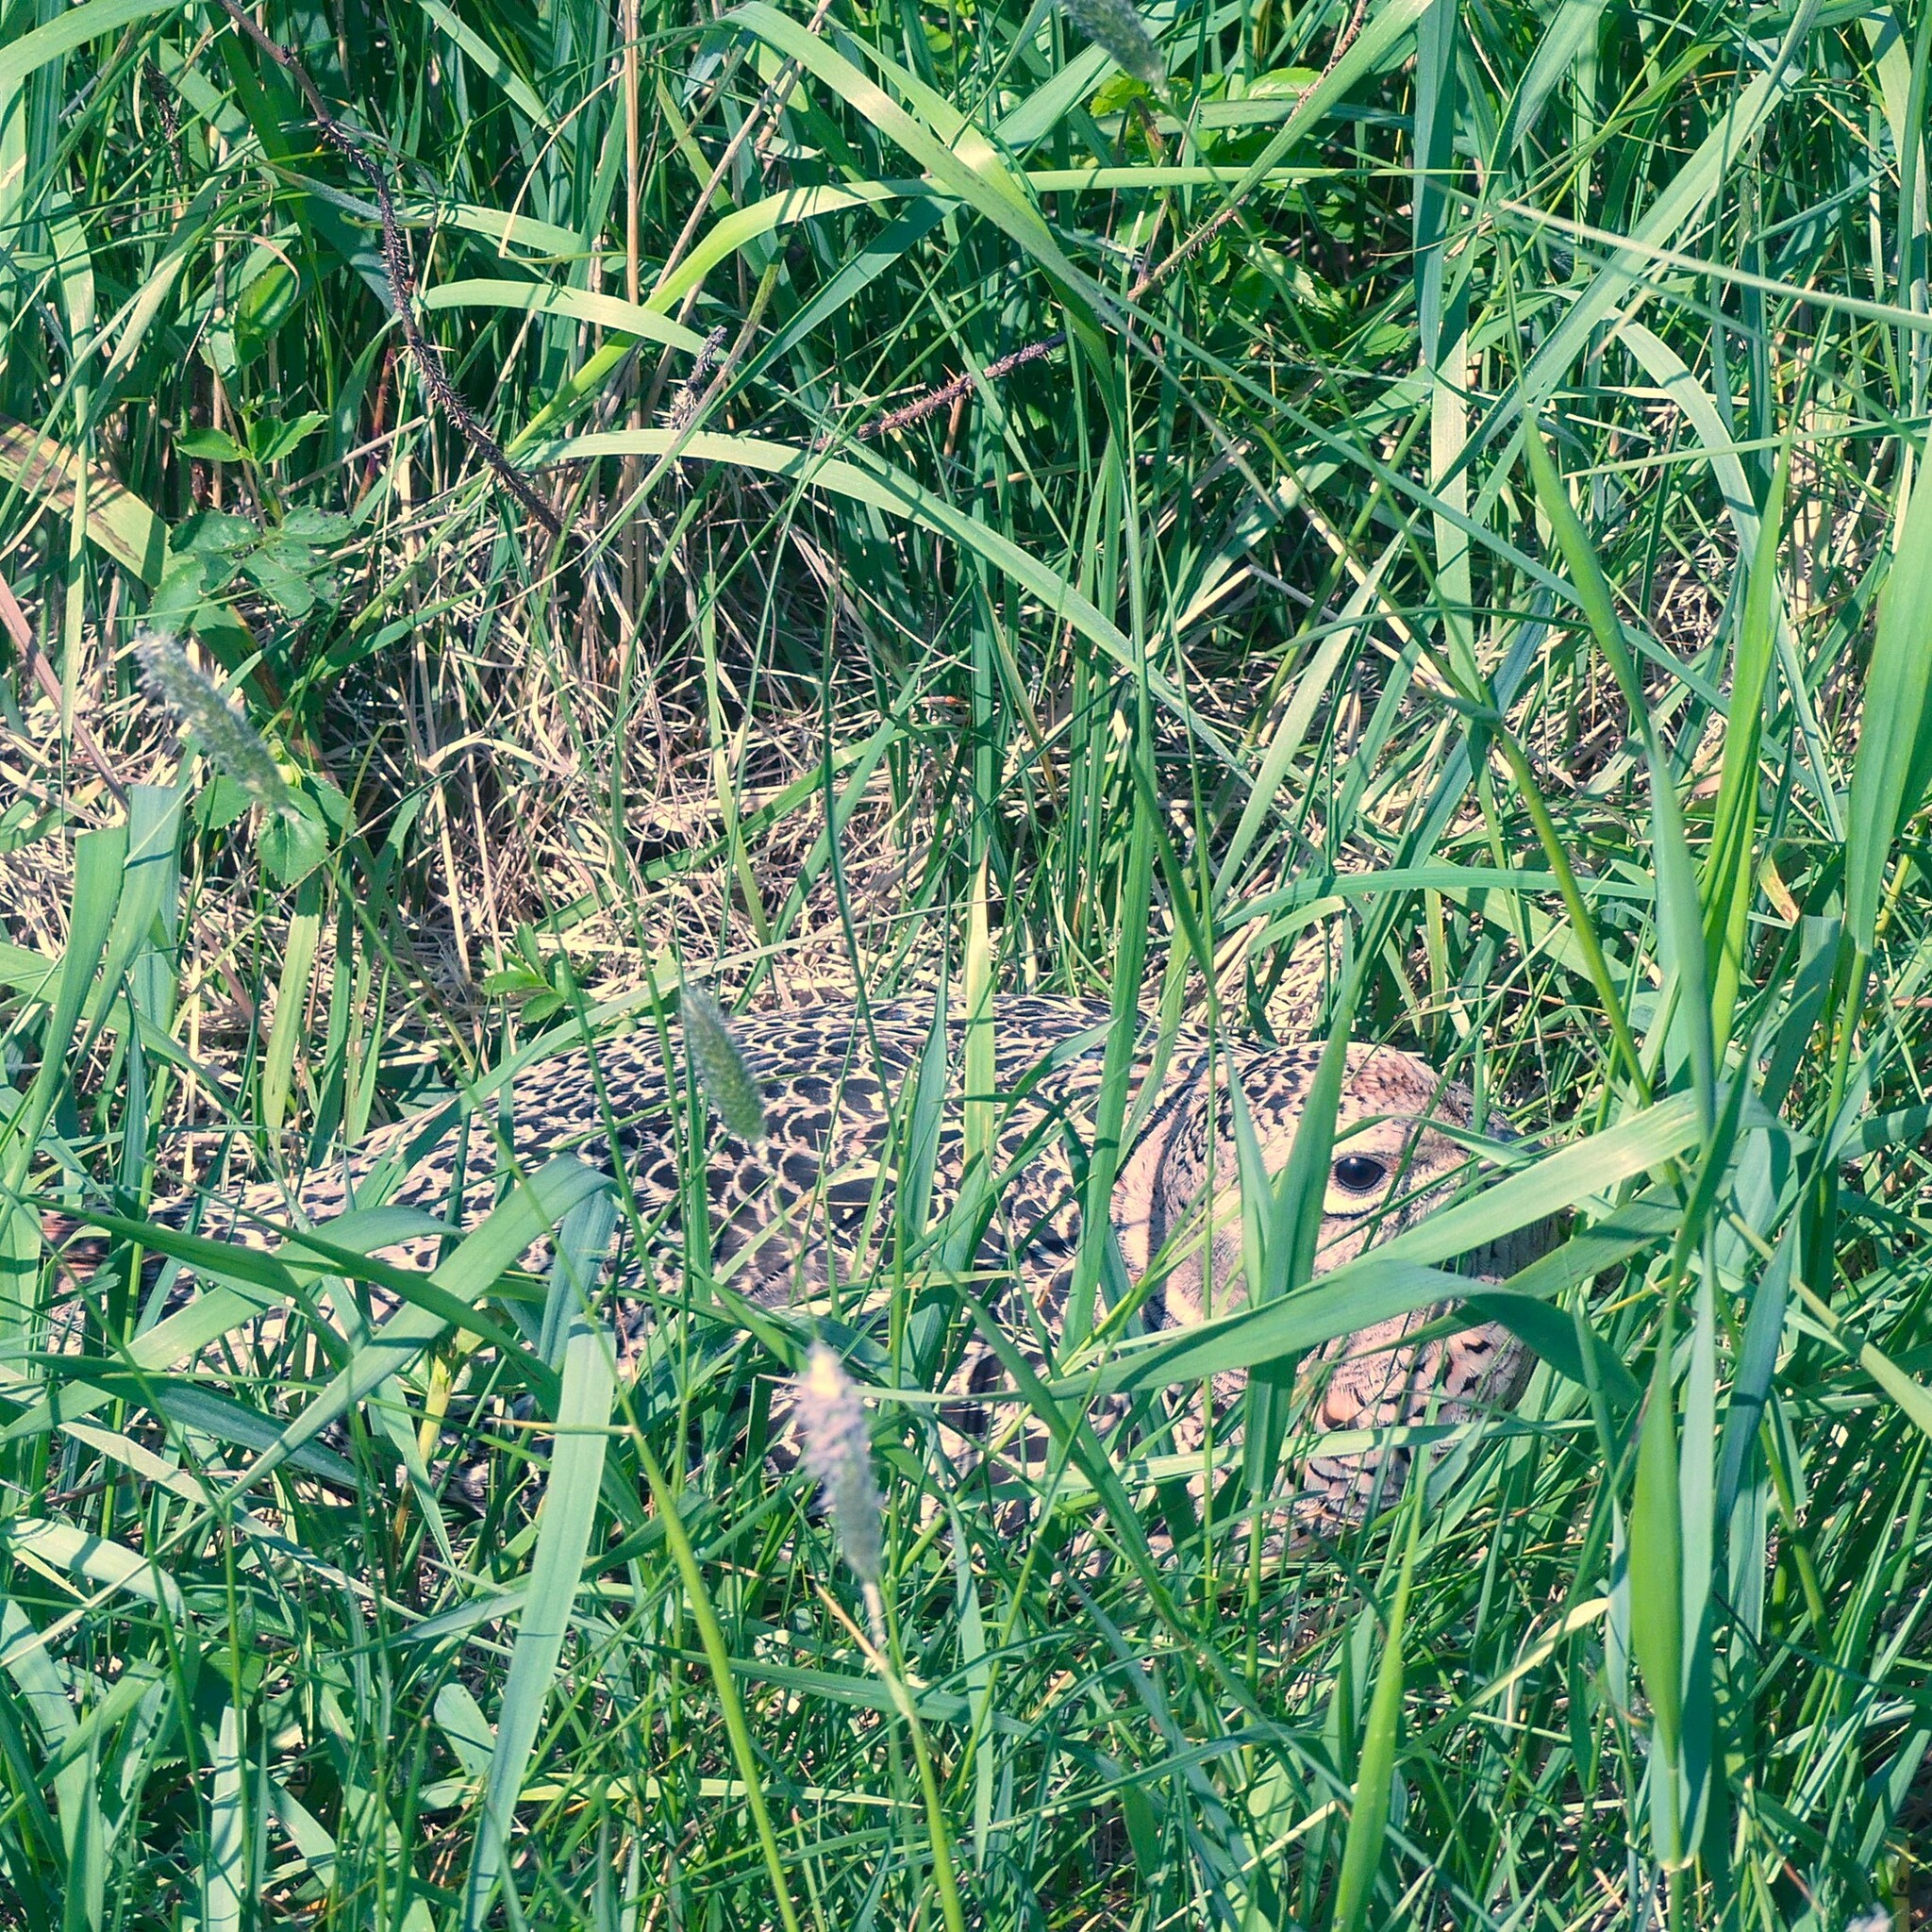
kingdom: Animalia
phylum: Chordata
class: Aves
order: Galliformes
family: Phasianidae
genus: Phasianus
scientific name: Phasianus colchicus
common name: Common pheasant
